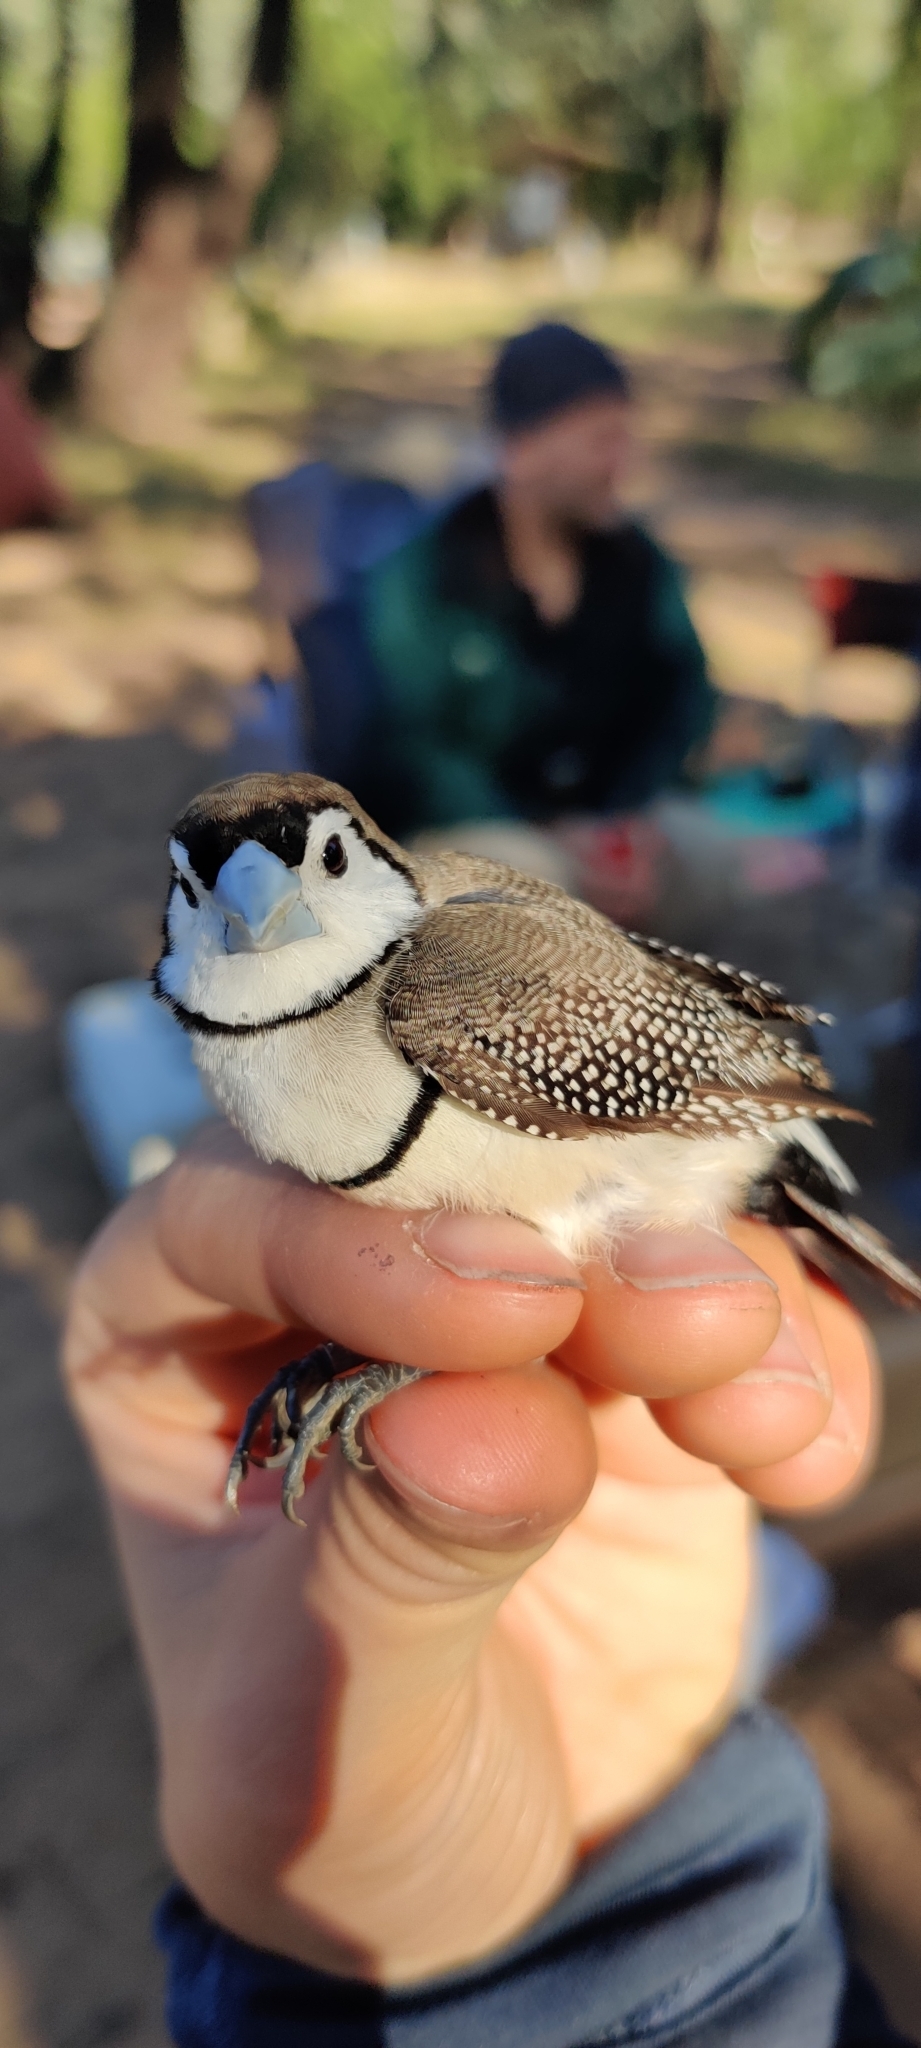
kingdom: Animalia
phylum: Chordata
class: Aves
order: Passeriformes
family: Estrildidae
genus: Taeniopygia
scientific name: Taeniopygia bichenovii
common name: Double-barred finch
